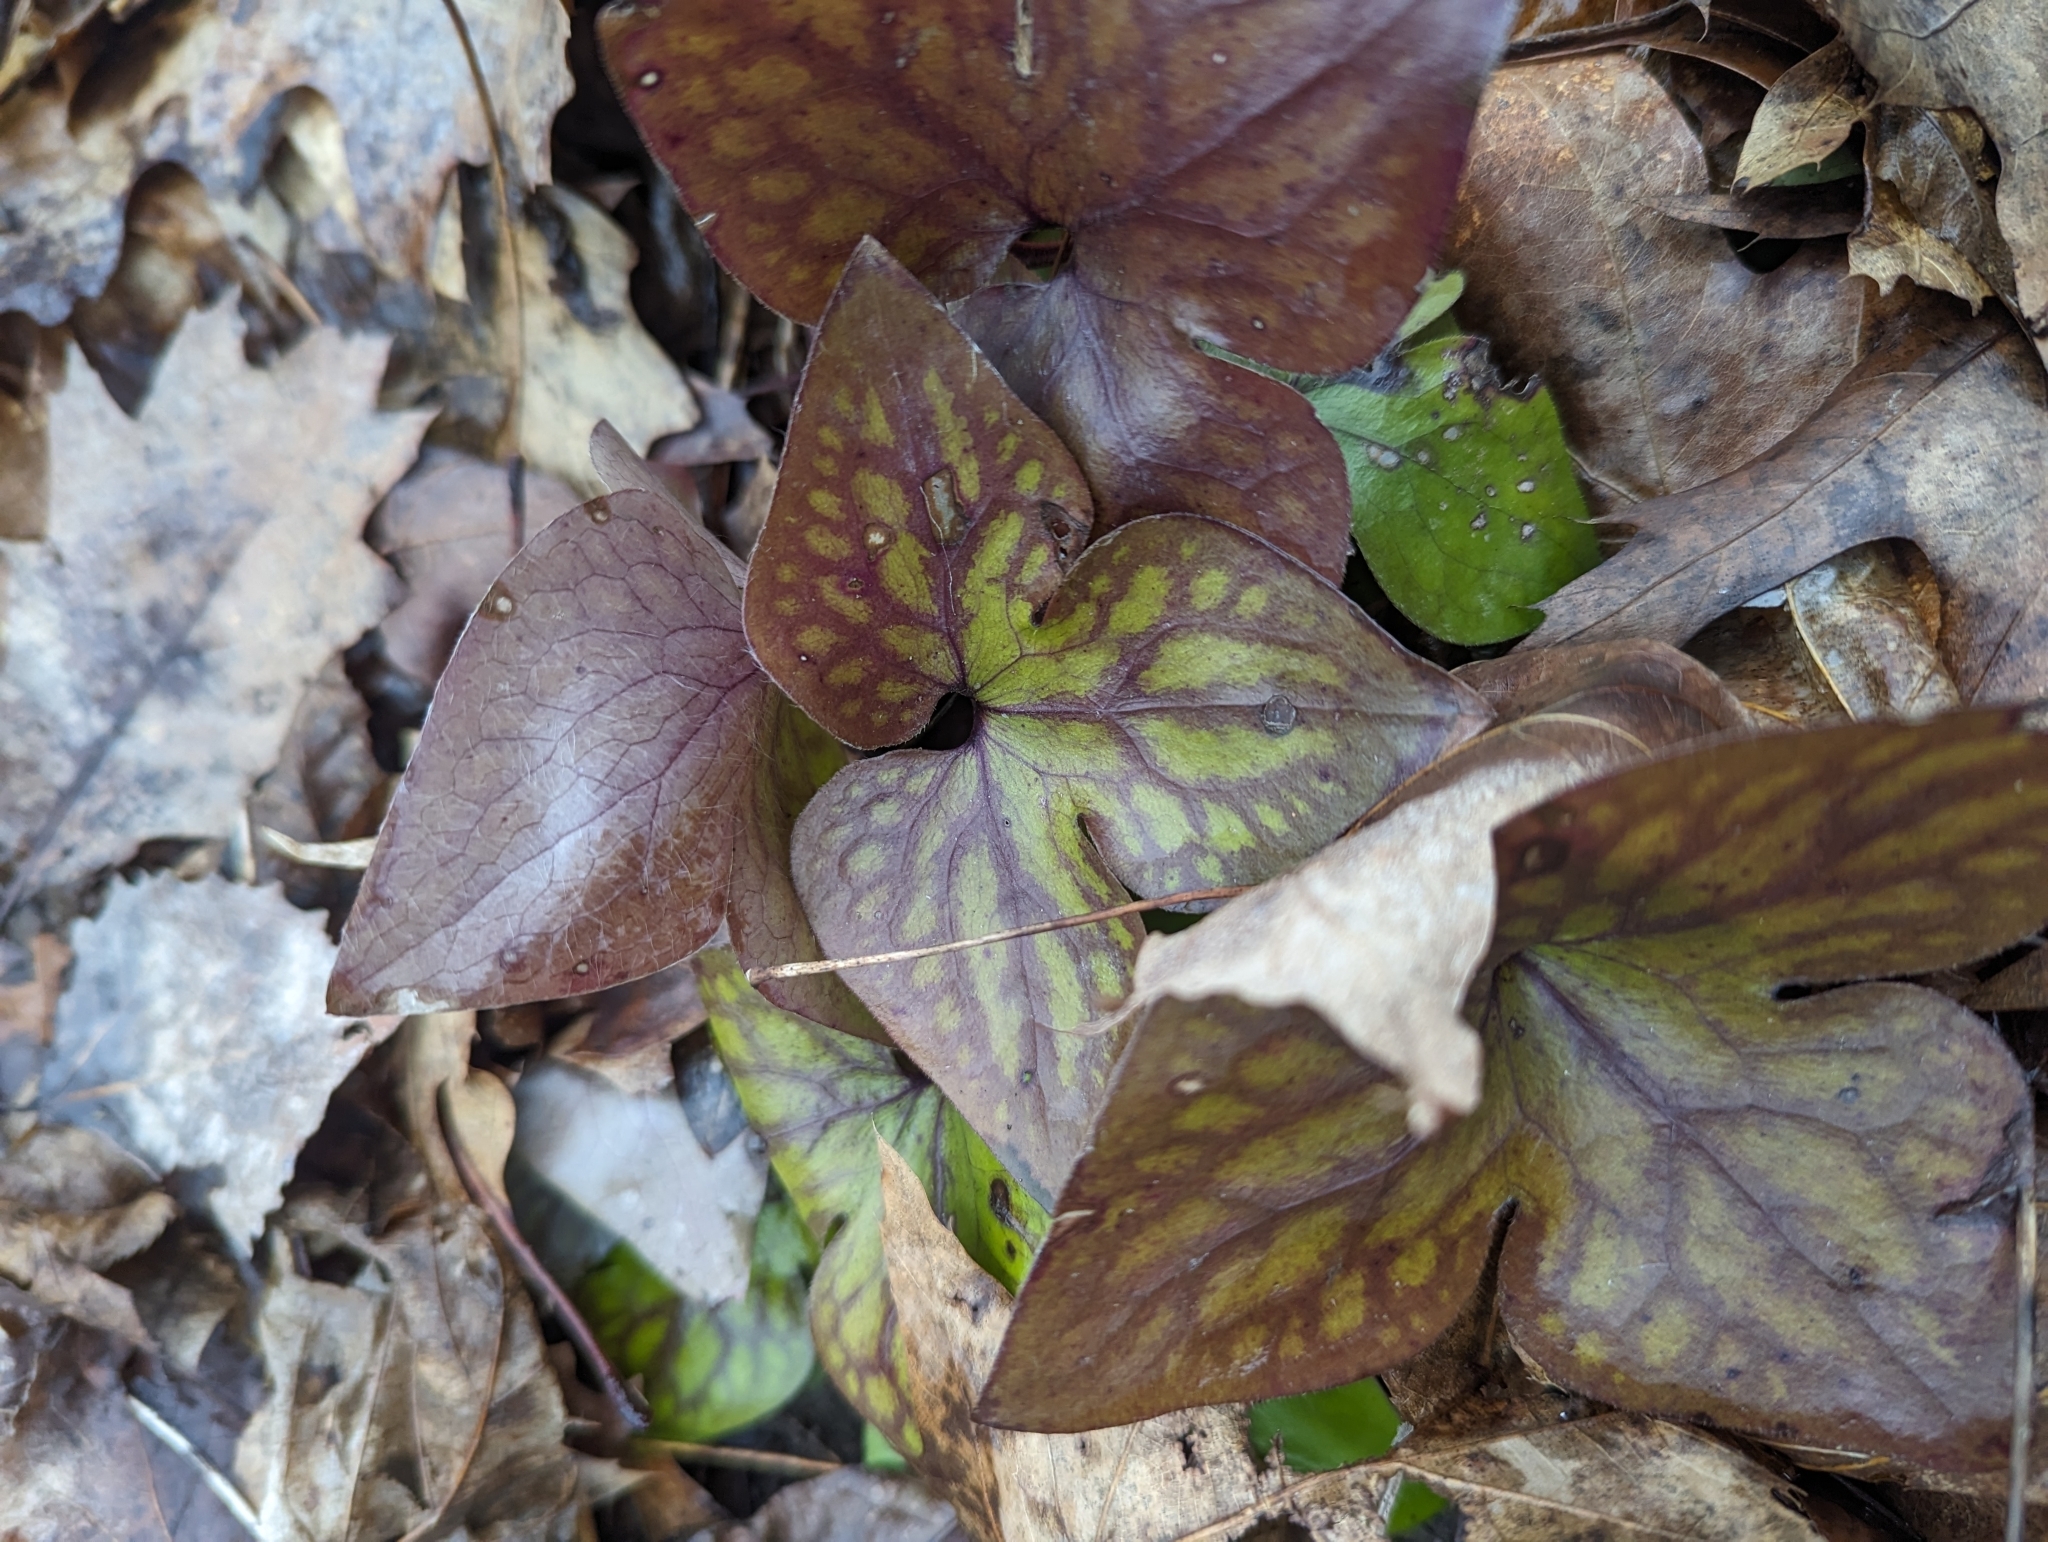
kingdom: Plantae
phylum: Tracheophyta
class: Magnoliopsida
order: Ranunculales
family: Ranunculaceae
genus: Hepatica
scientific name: Hepatica acutiloba
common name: Sharp-lobed hepatica
